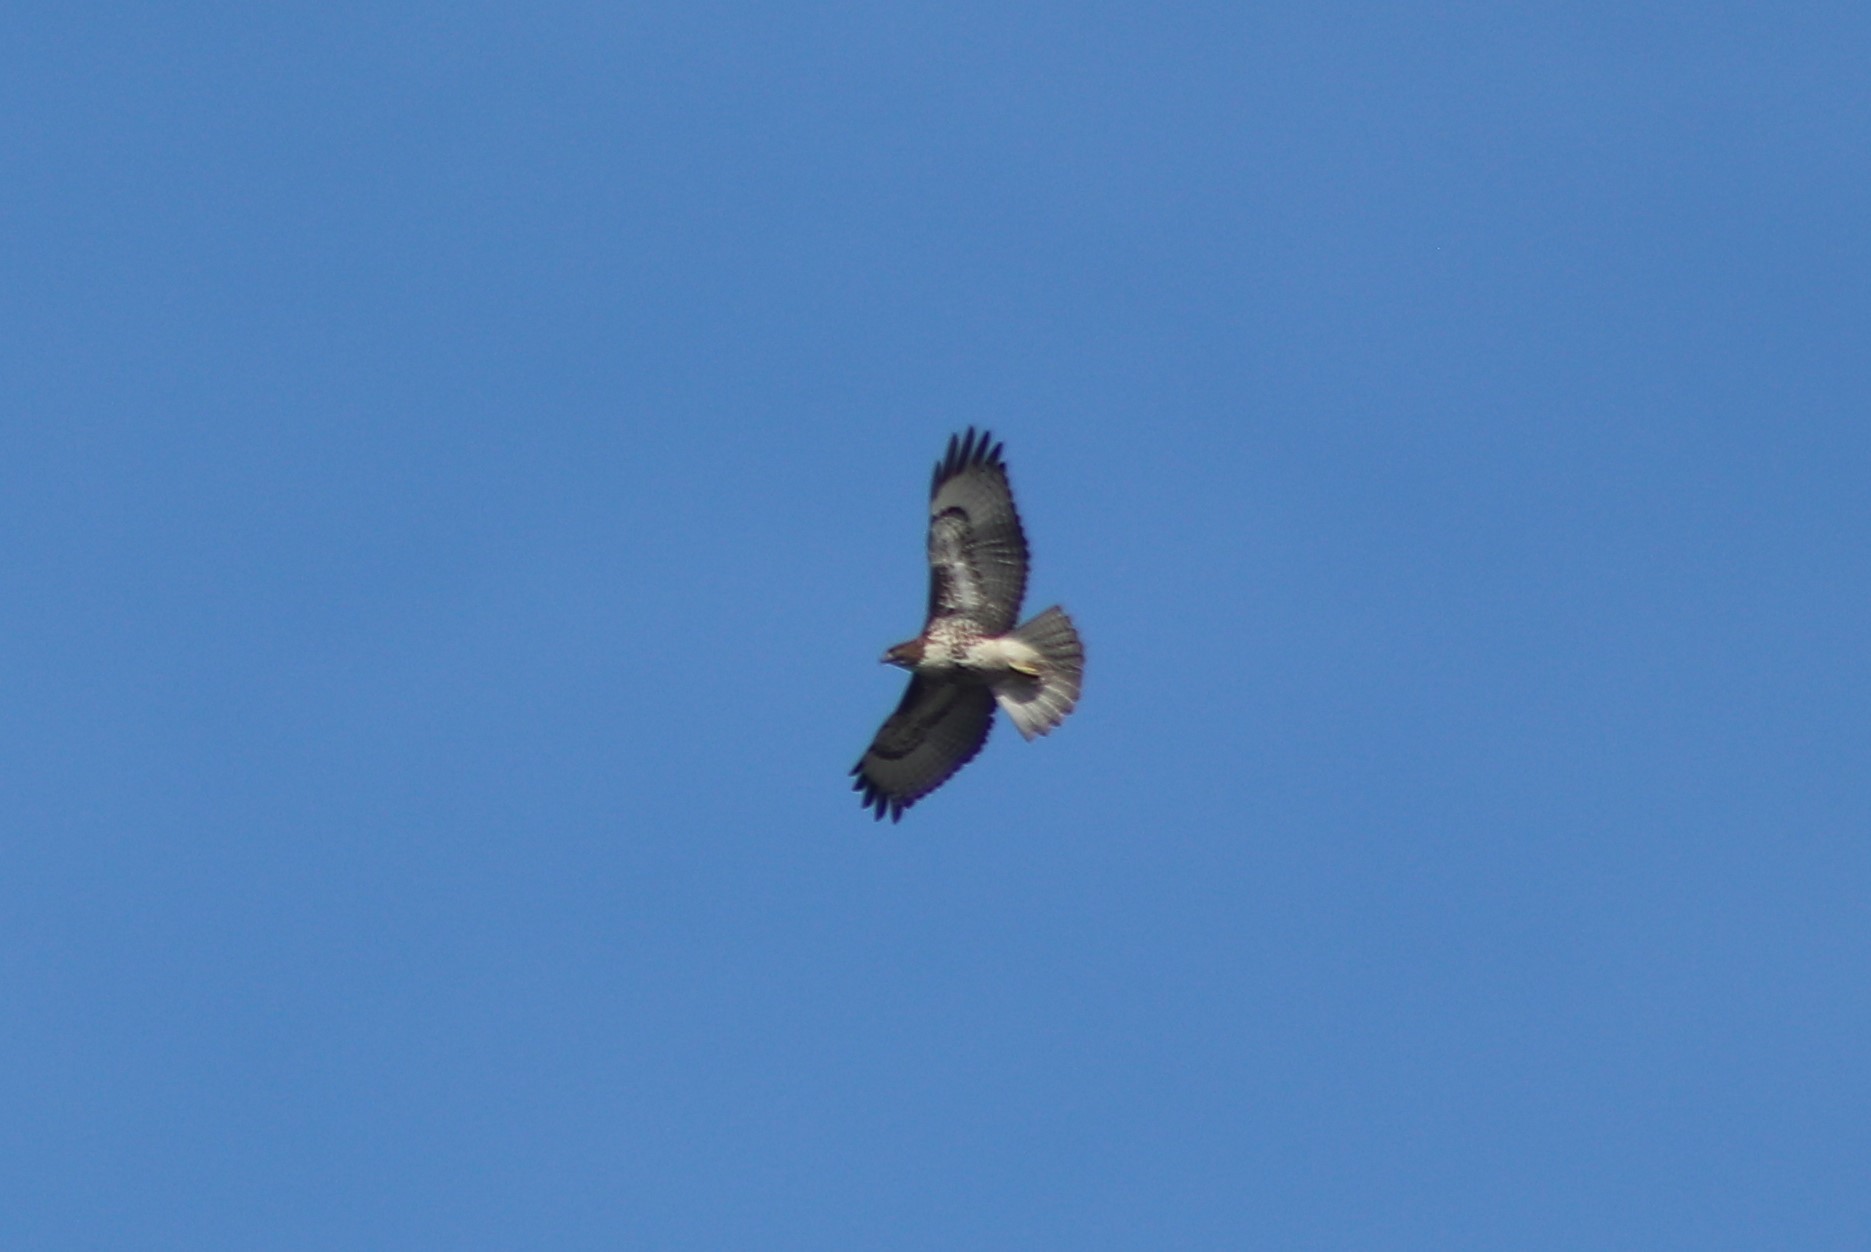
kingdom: Animalia
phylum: Chordata
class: Aves
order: Accipitriformes
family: Accipitridae
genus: Buteo
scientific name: Buteo jamaicensis
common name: Red-tailed hawk
